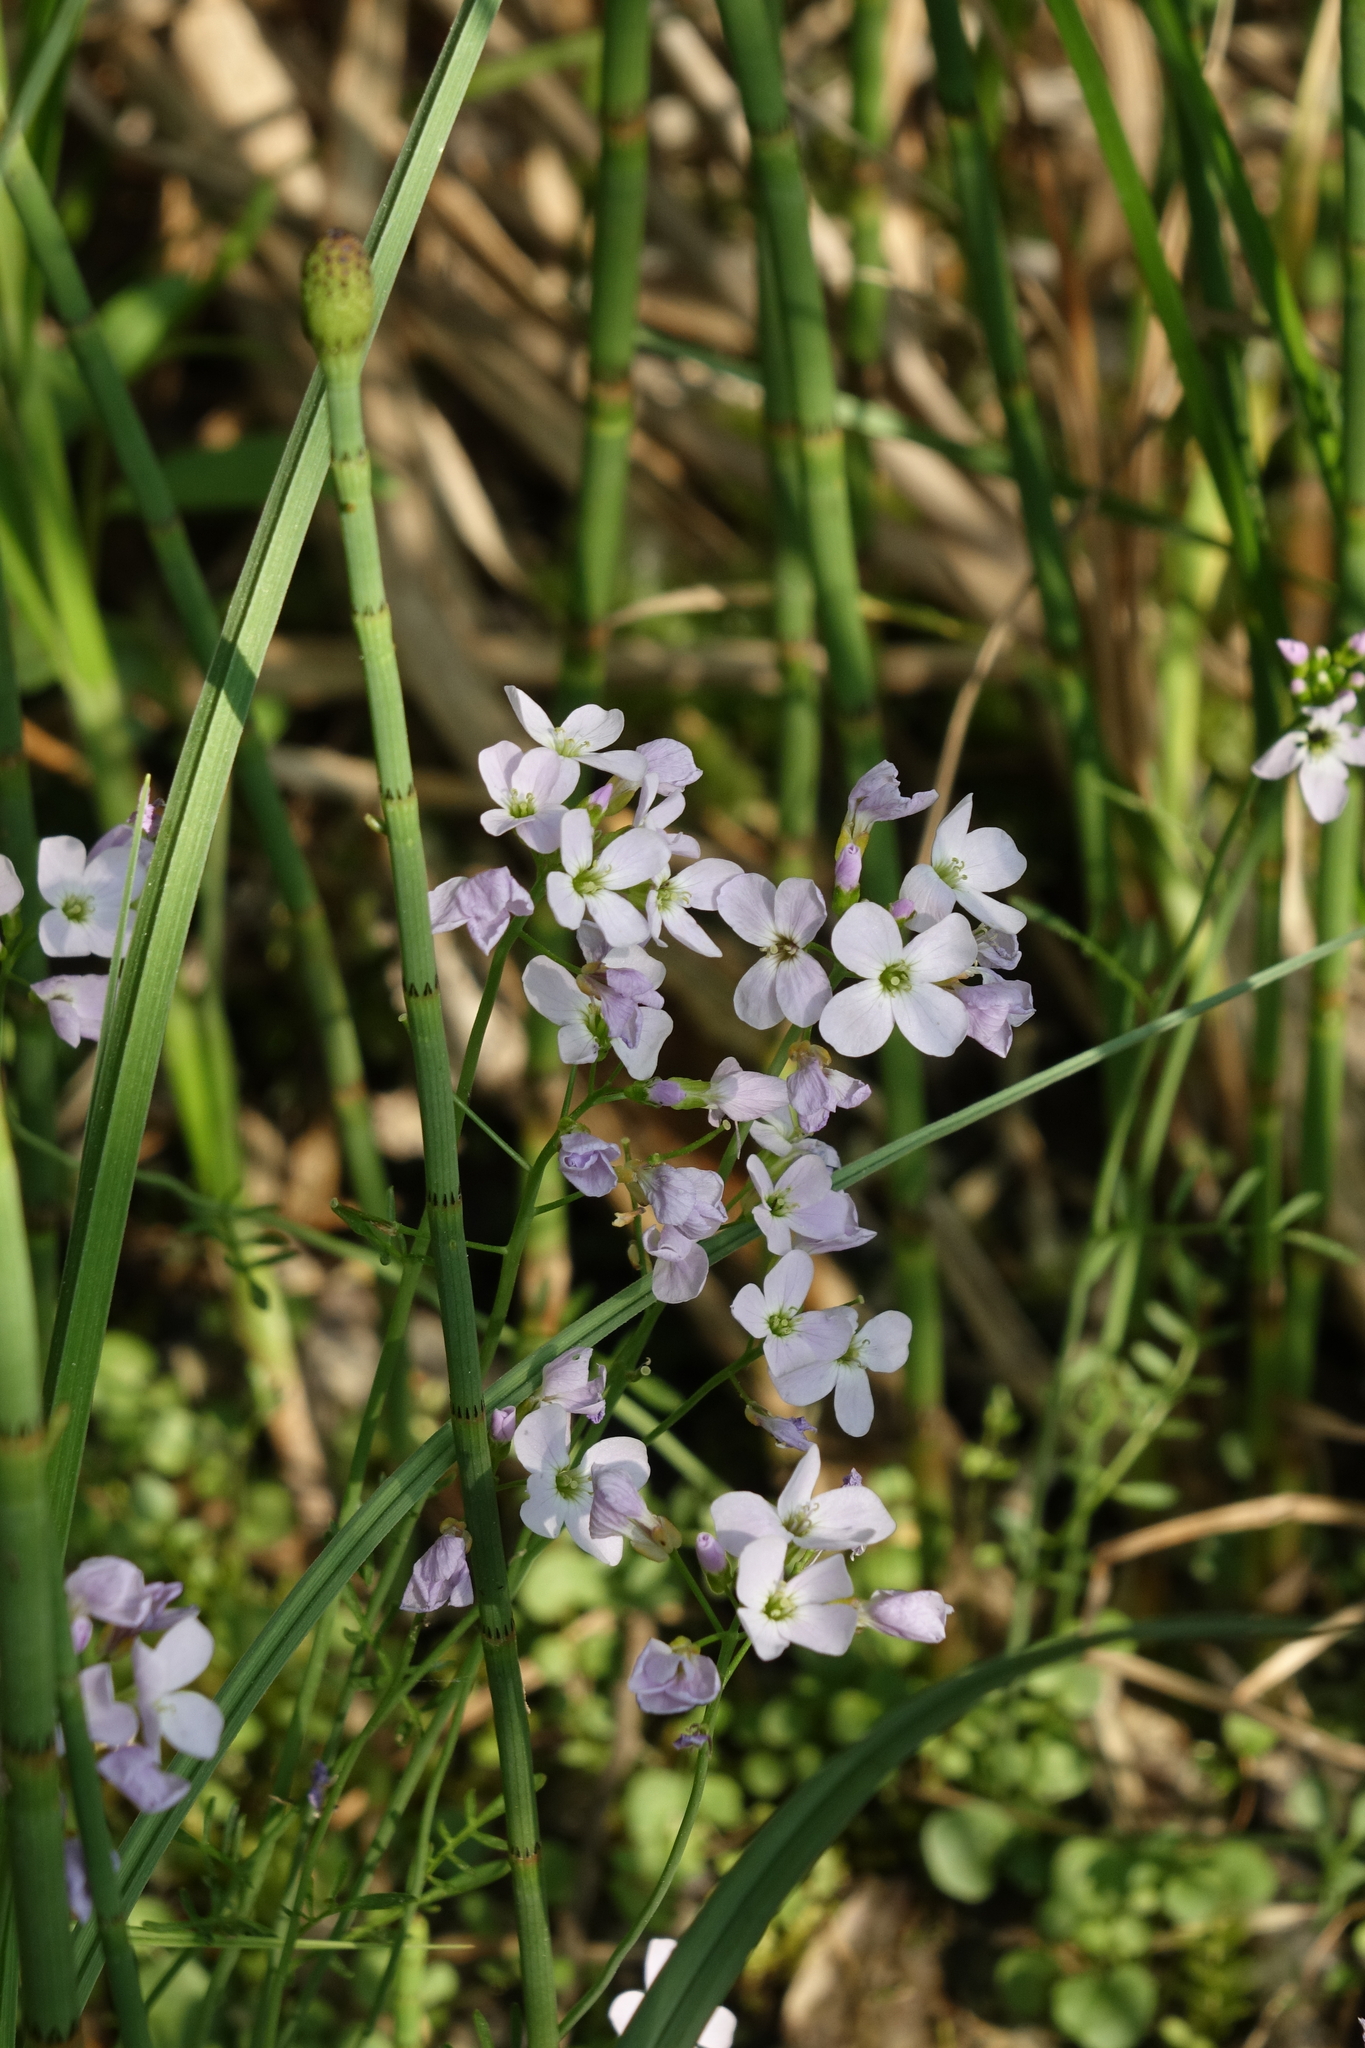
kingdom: Plantae
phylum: Tracheophyta
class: Magnoliopsida
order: Brassicales
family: Brassicaceae
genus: Cardamine
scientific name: Cardamine pratensis
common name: Cuckoo flower
